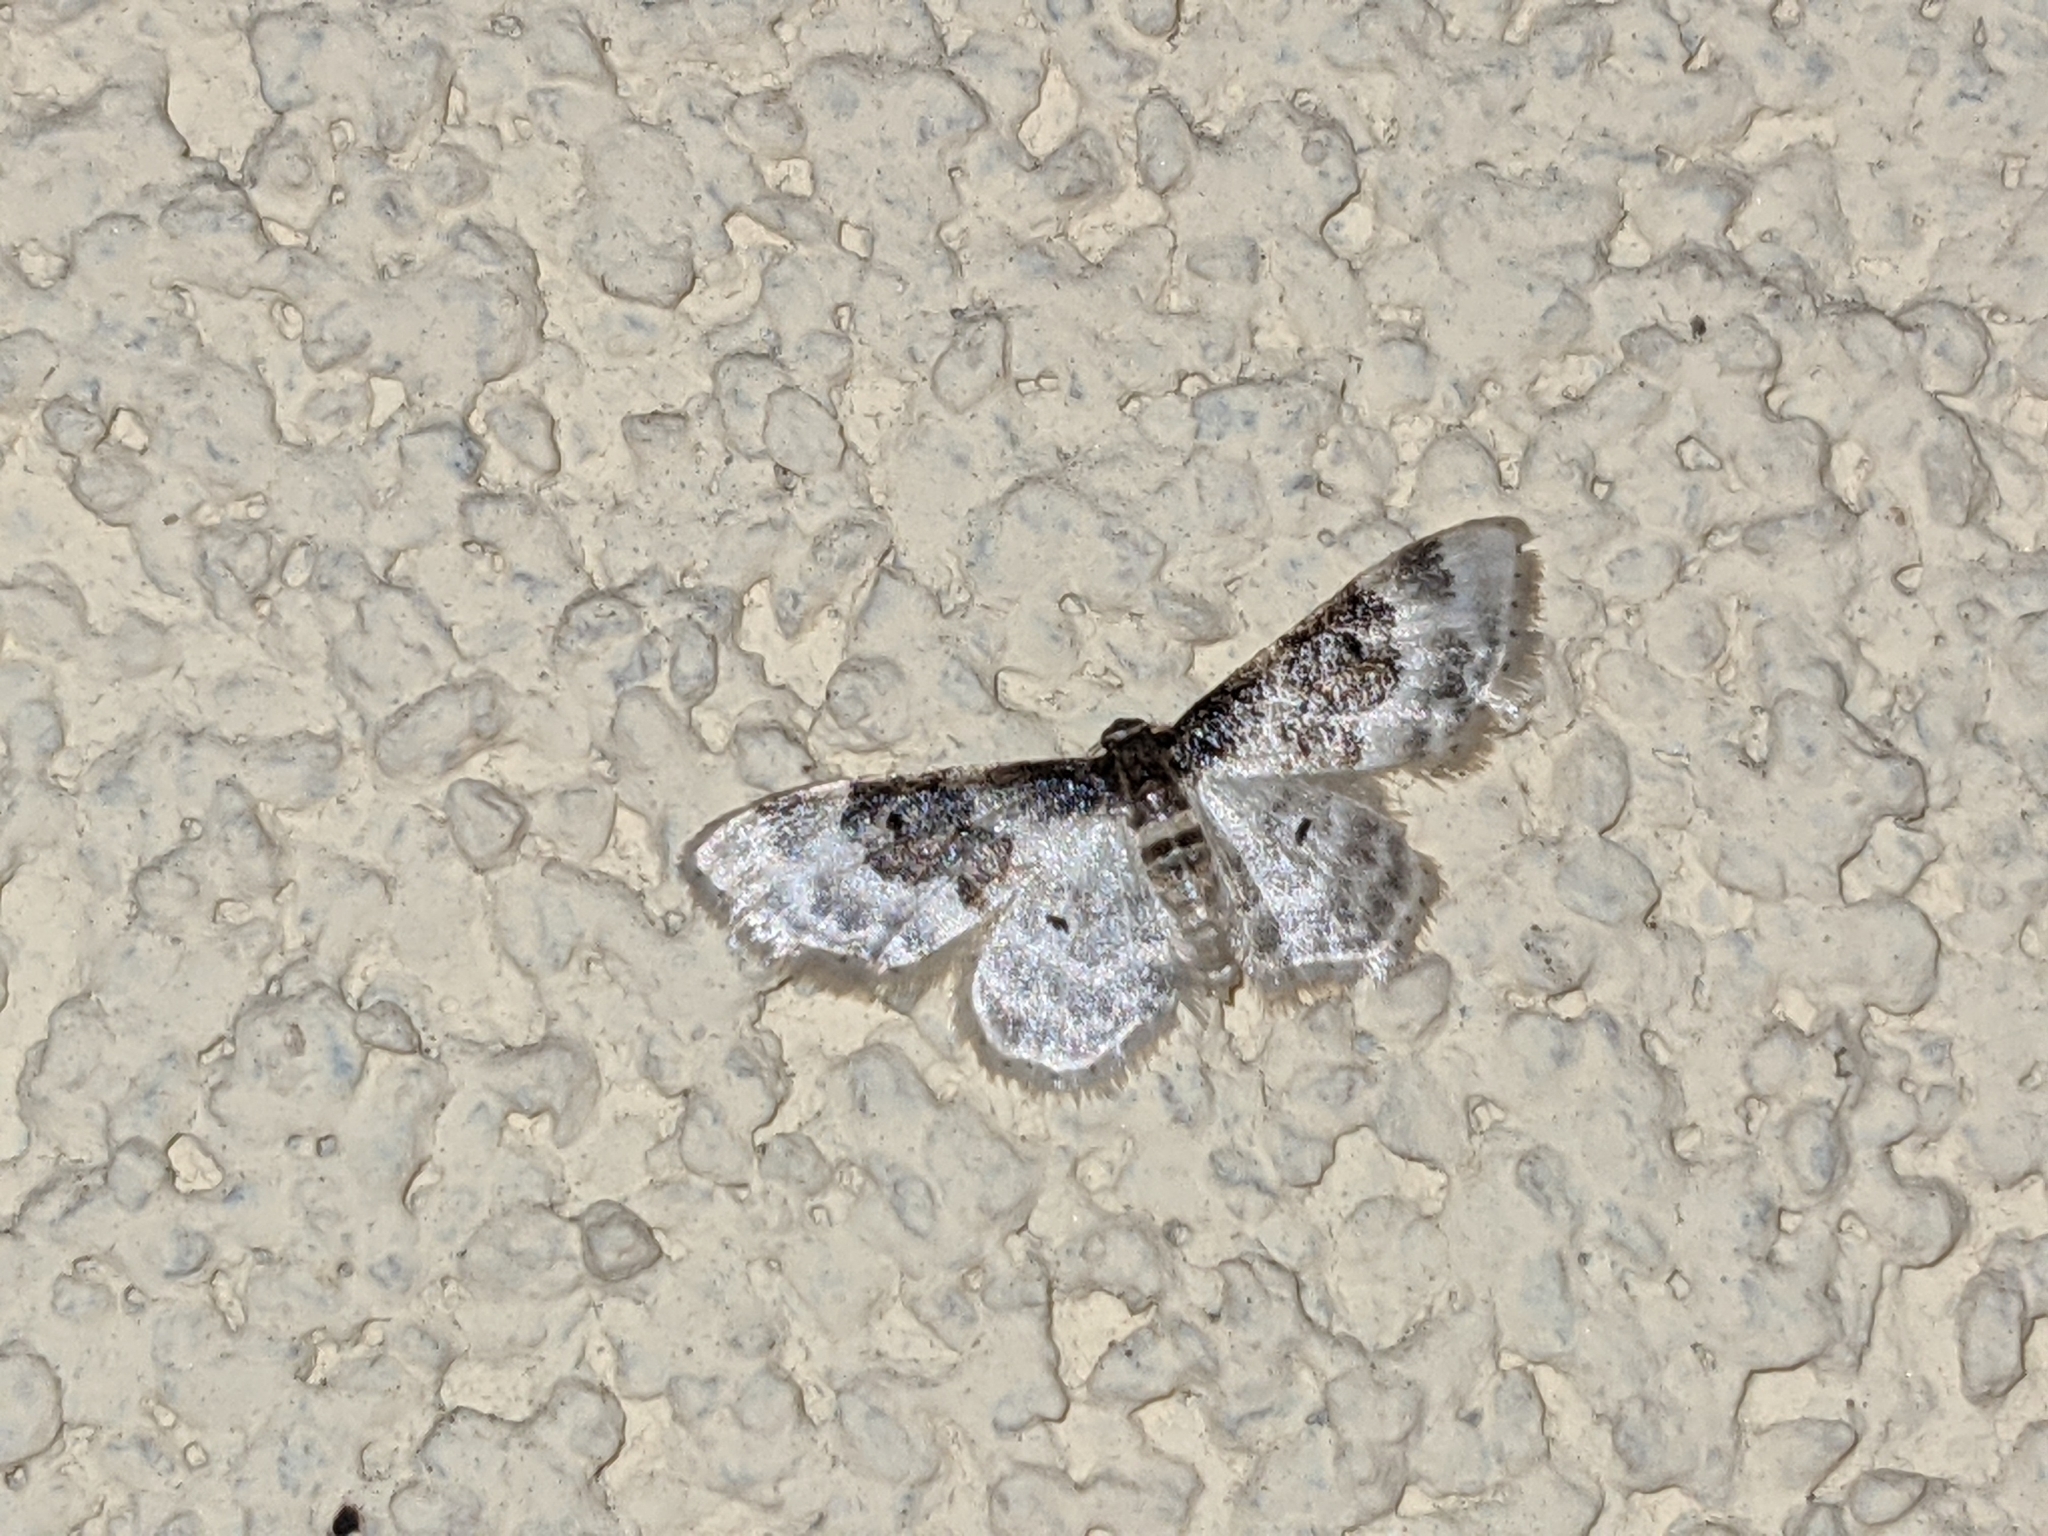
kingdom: Animalia
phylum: Arthropoda
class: Insecta
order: Lepidoptera
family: Geometridae
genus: Idaea
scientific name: Idaea rusticata
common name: Least carpet
